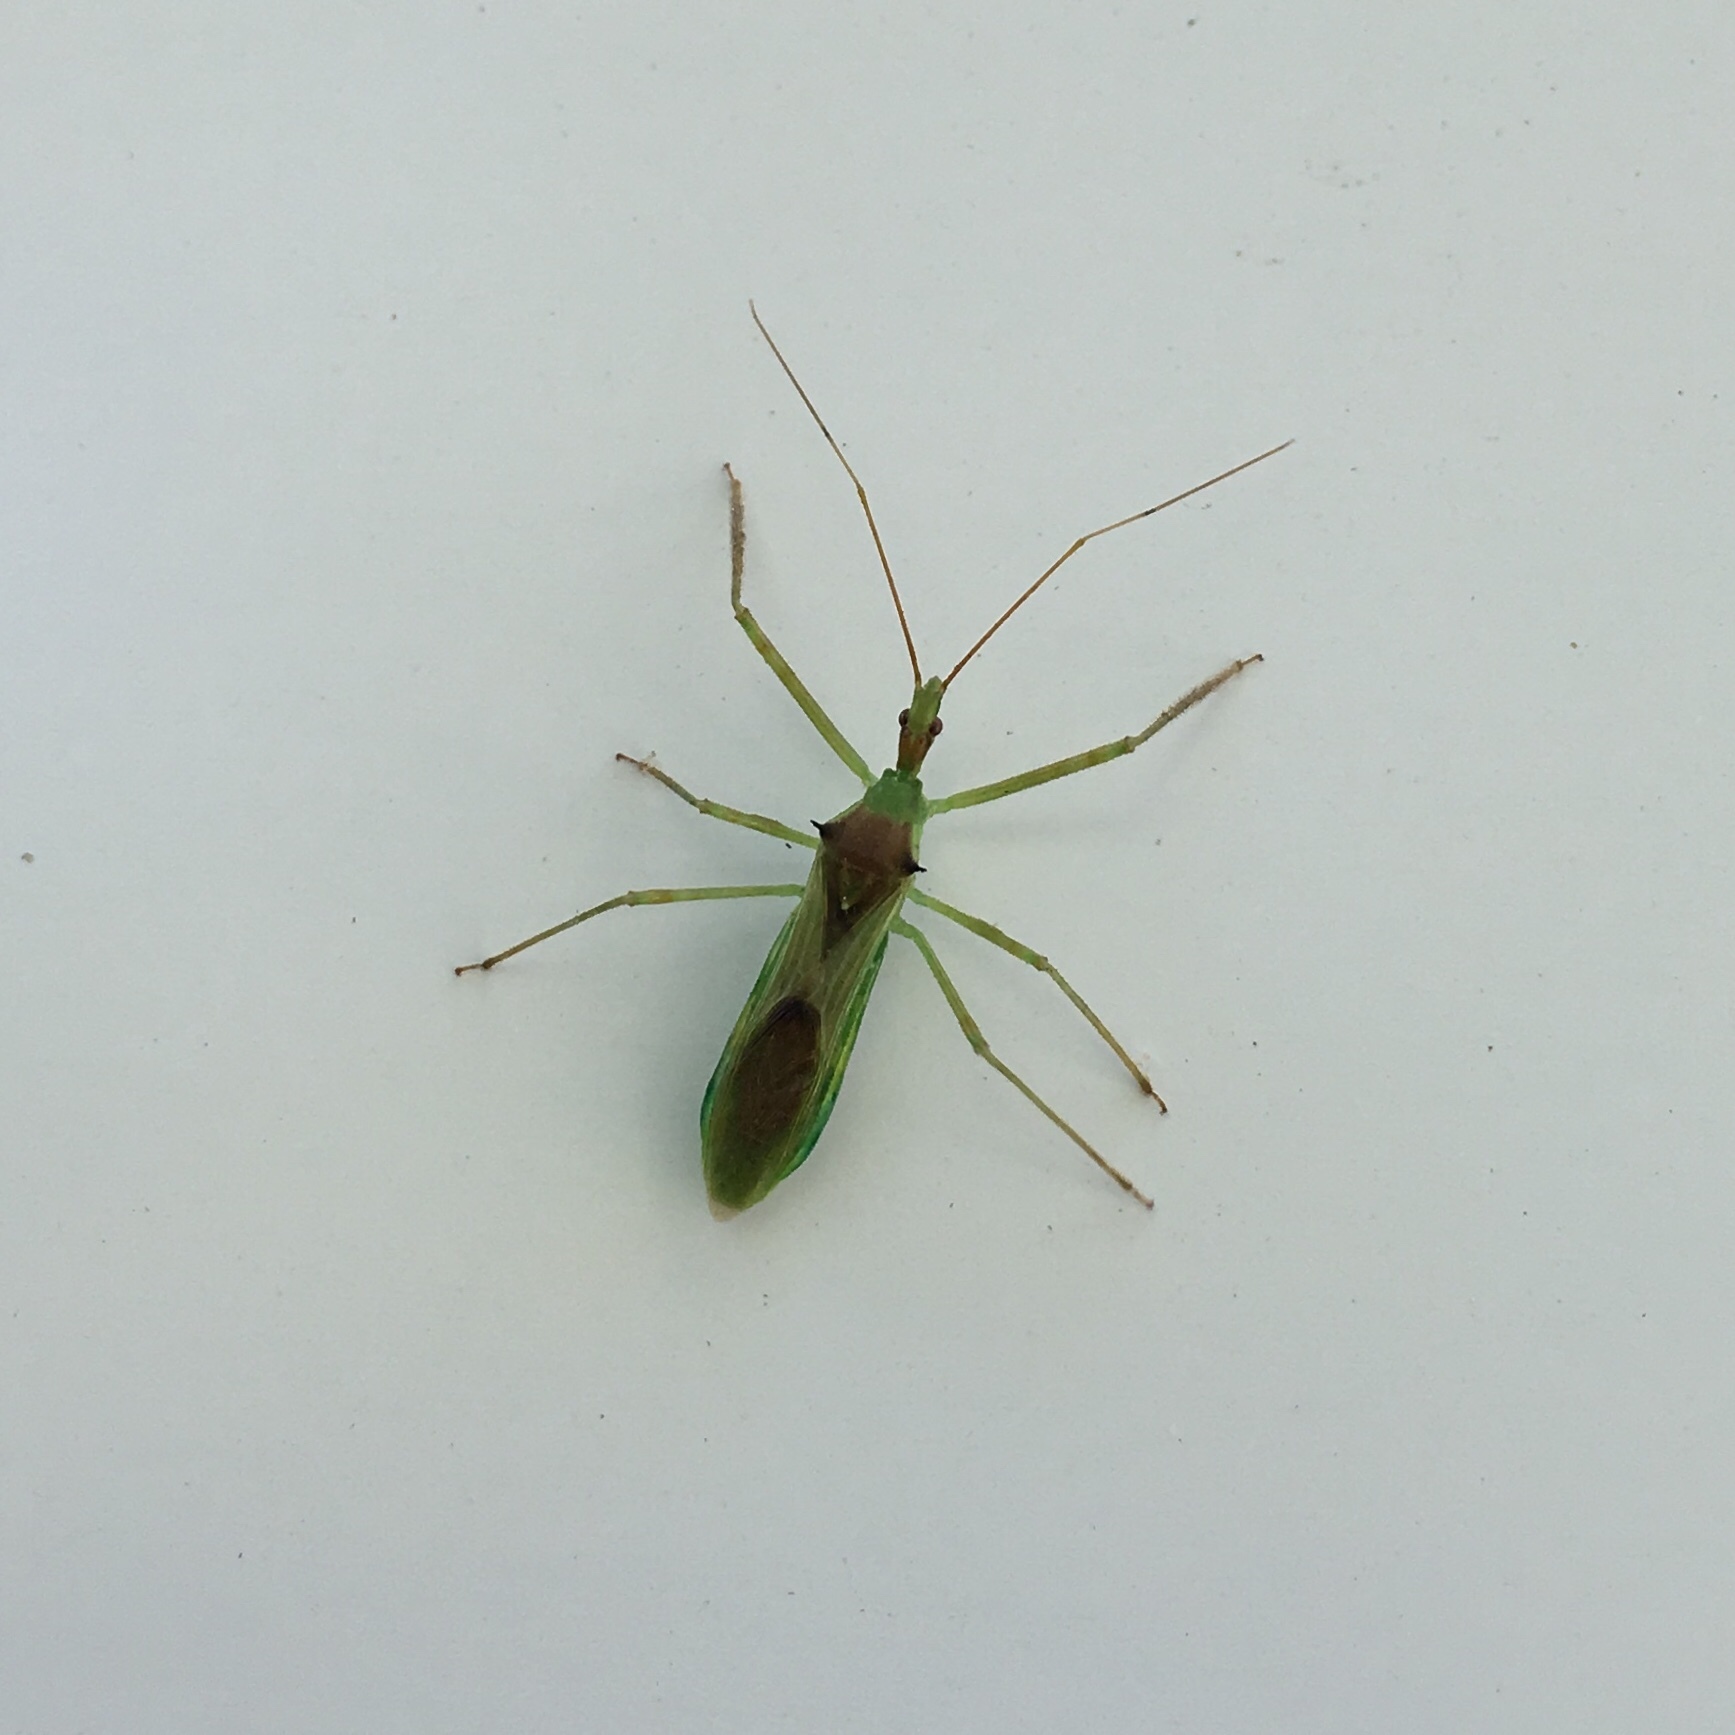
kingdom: Animalia
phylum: Arthropoda
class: Insecta
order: Hemiptera
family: Reduviidae
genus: Zelus
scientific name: Zelus luridus
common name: Pale green assassin bug
